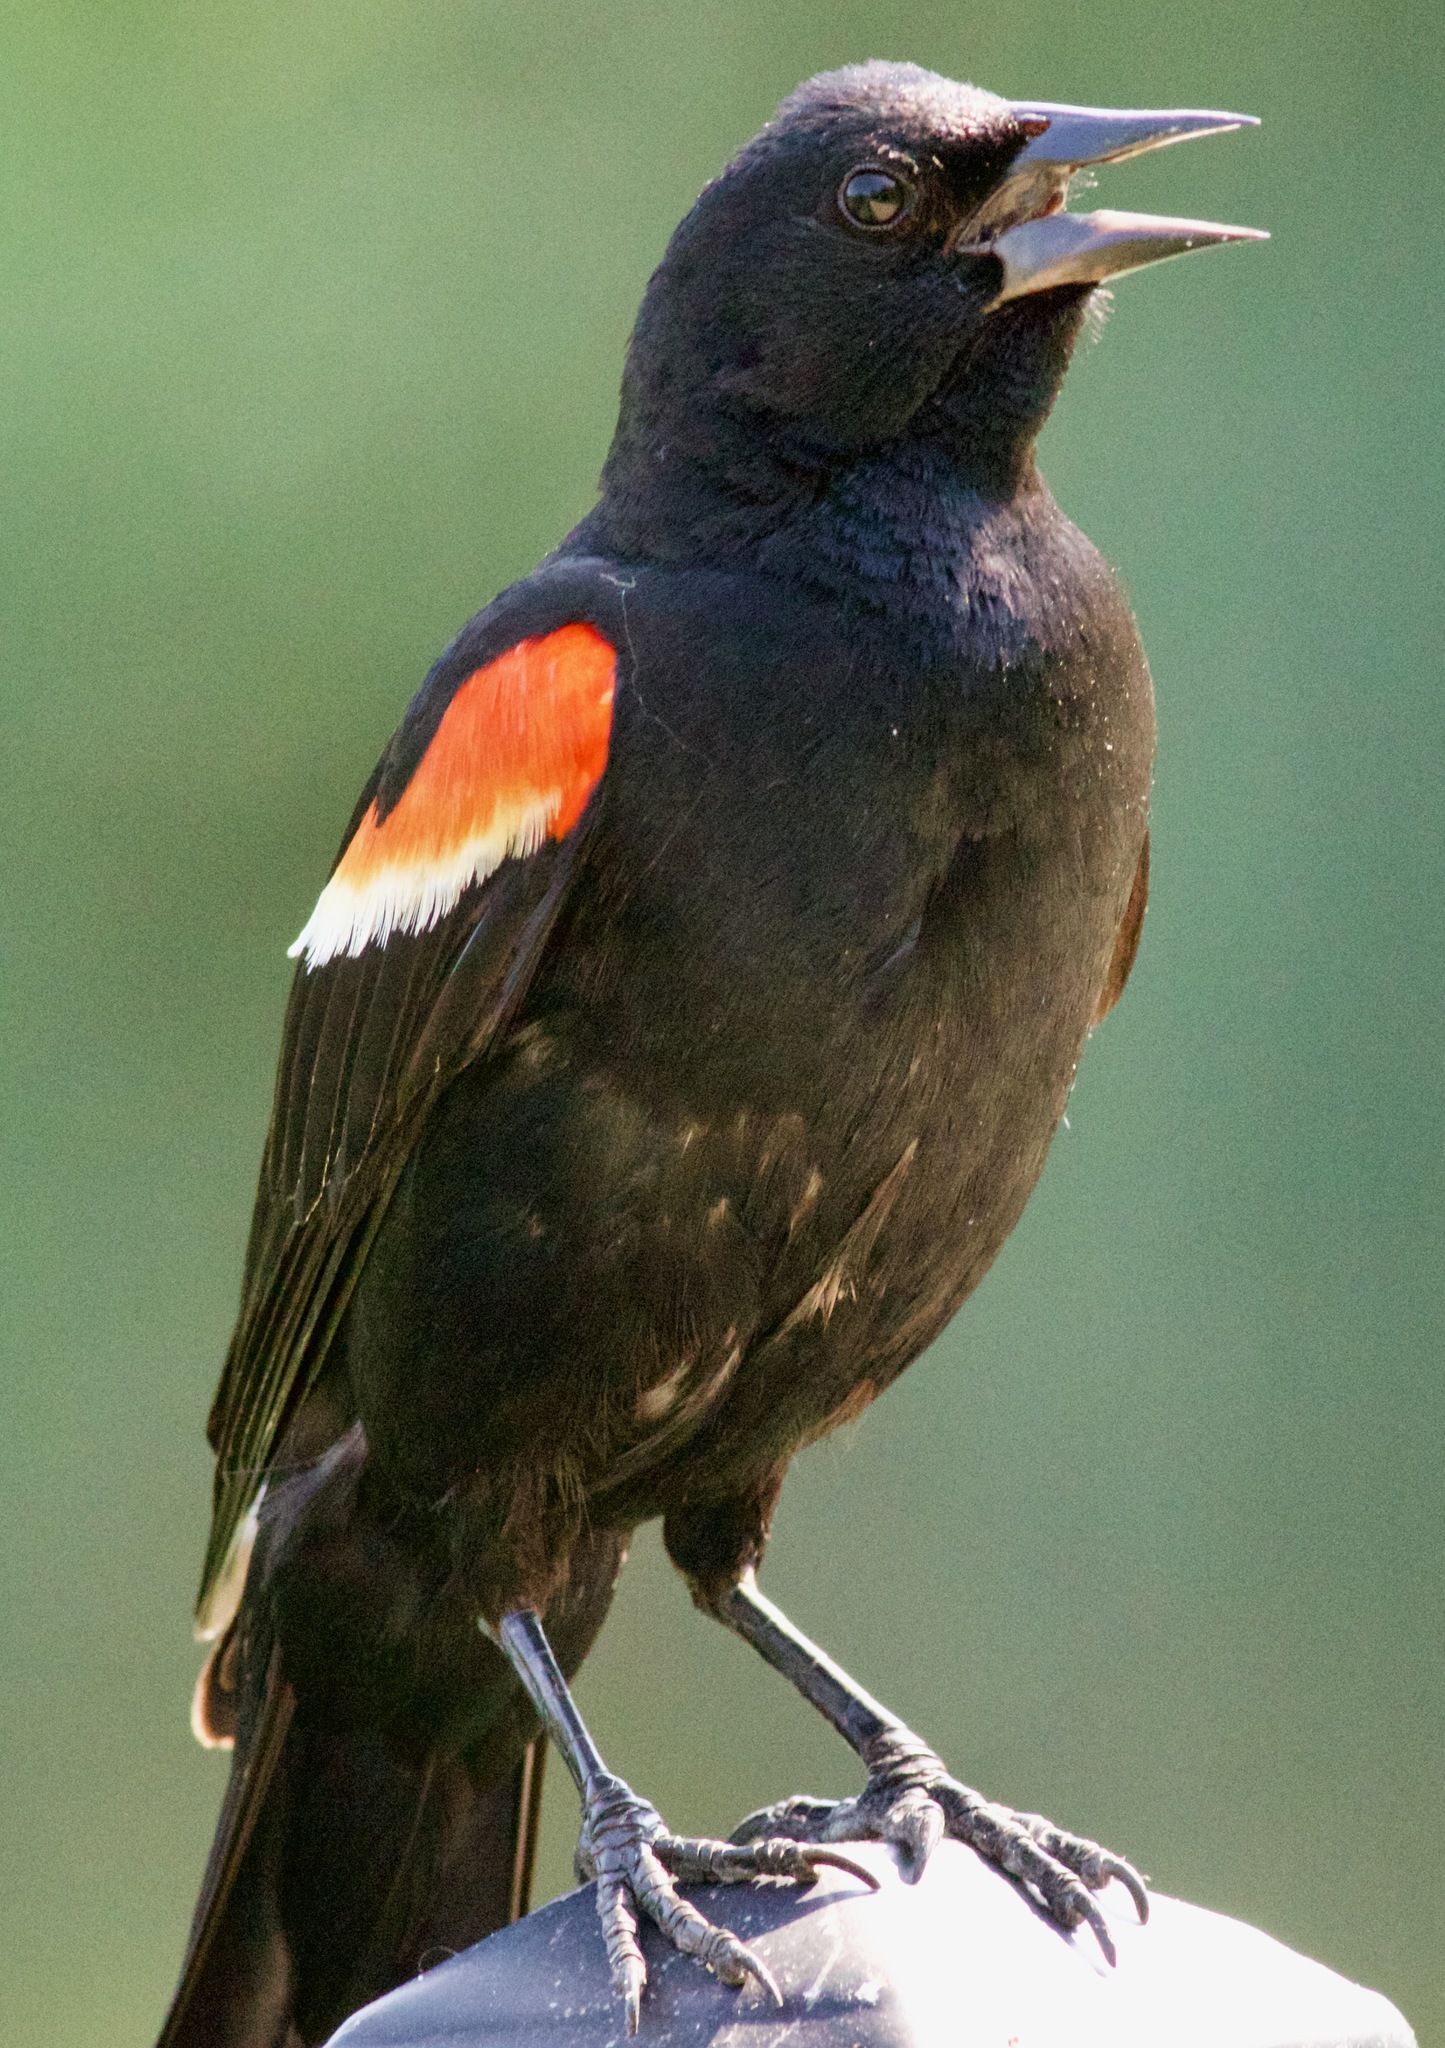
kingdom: Animalia
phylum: Chordata
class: Aves
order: Passeriformes
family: Icteridae
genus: Agelaius
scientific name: Agelaius phoeniceus
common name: Red-winged blackbird
